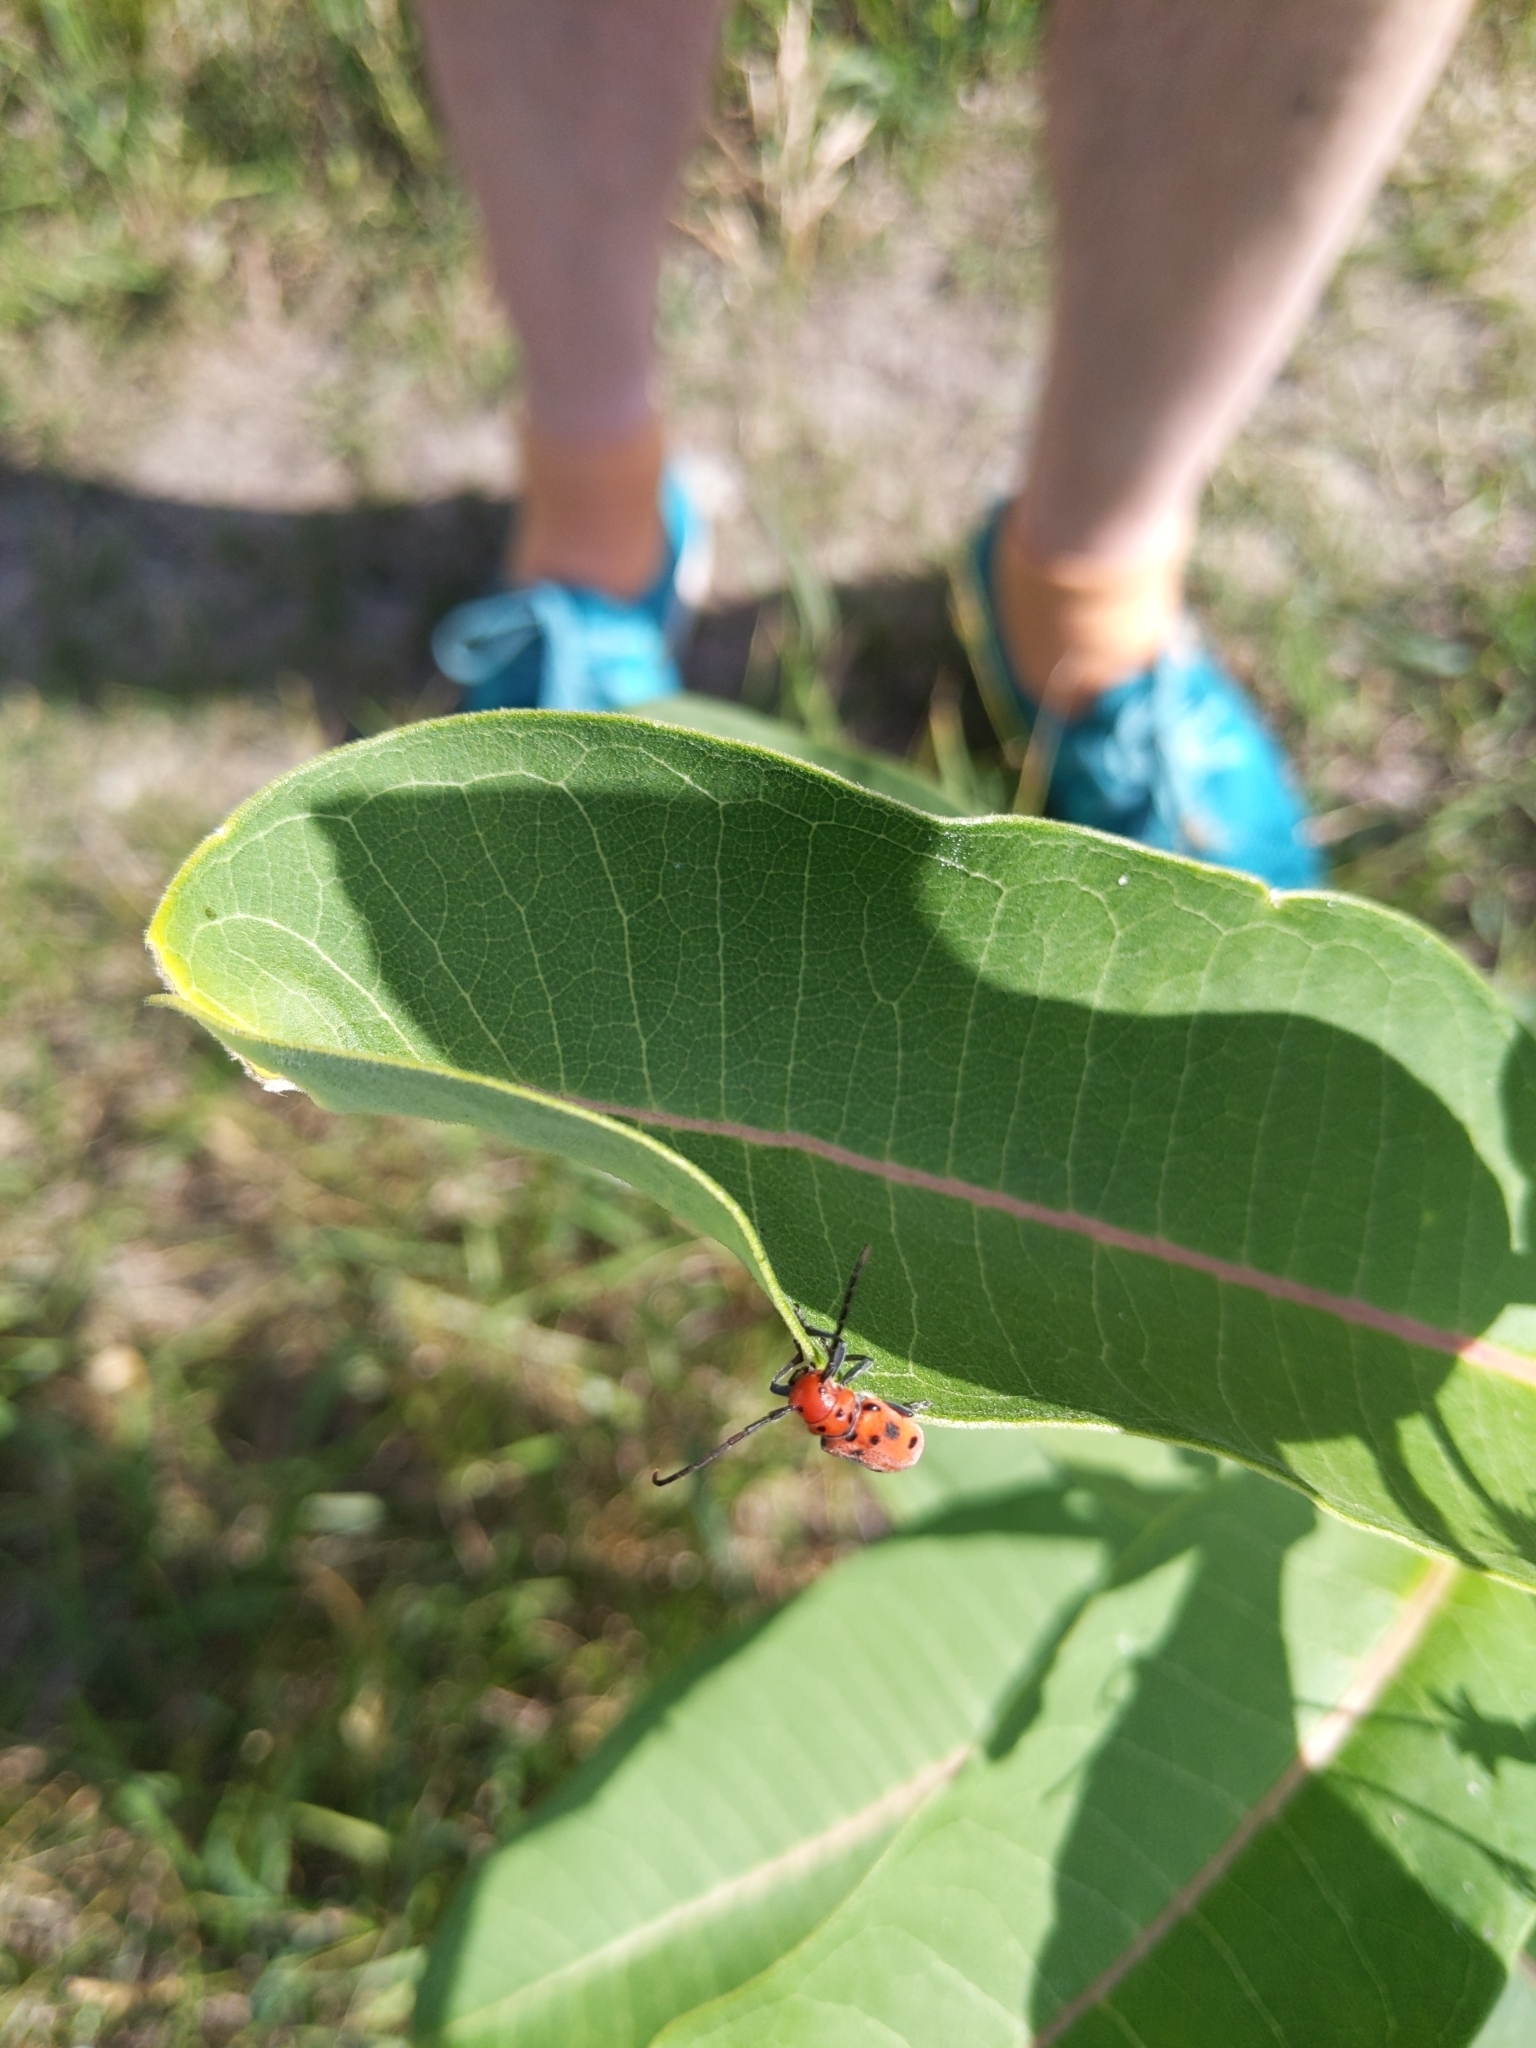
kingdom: Animalia
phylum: Arthropoda
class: Insecta
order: Coleoptera
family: Cerambycidae
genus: Tetraopes
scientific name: Tetraopes tetrophthalmus
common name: Red milkweed beetle
